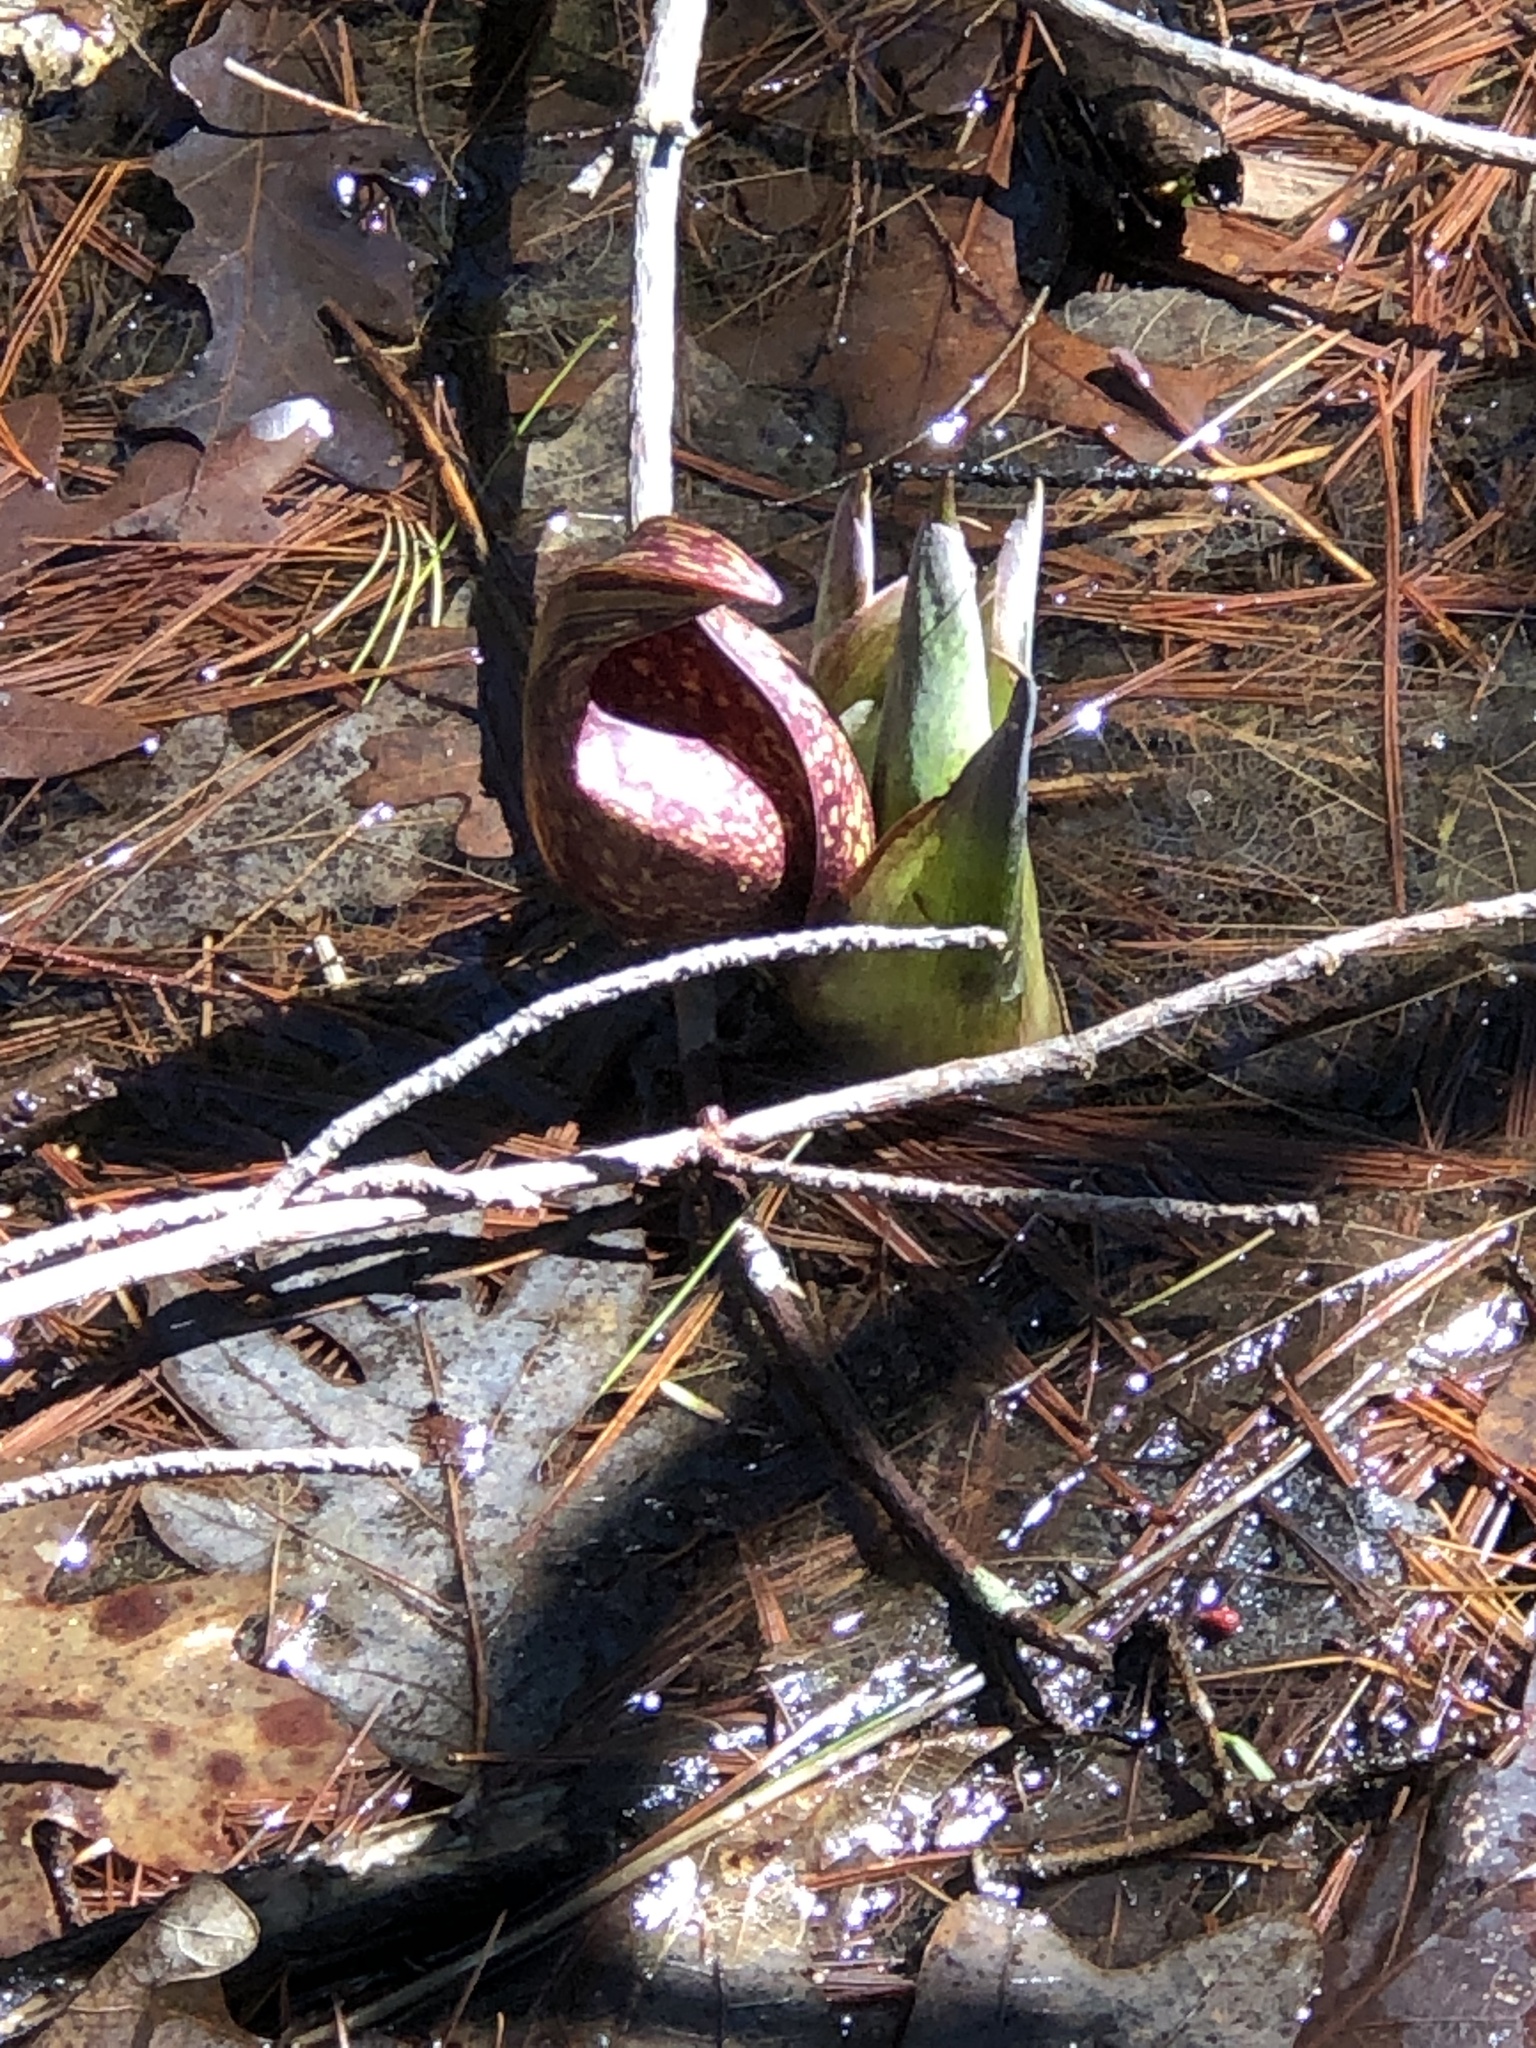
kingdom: Plantae
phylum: Tracheophyta
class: Liliopsida
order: Alismatales
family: Araceae
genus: Symplocarpus
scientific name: Symplocarpus foetidus
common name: Eastern skunk cabbage
